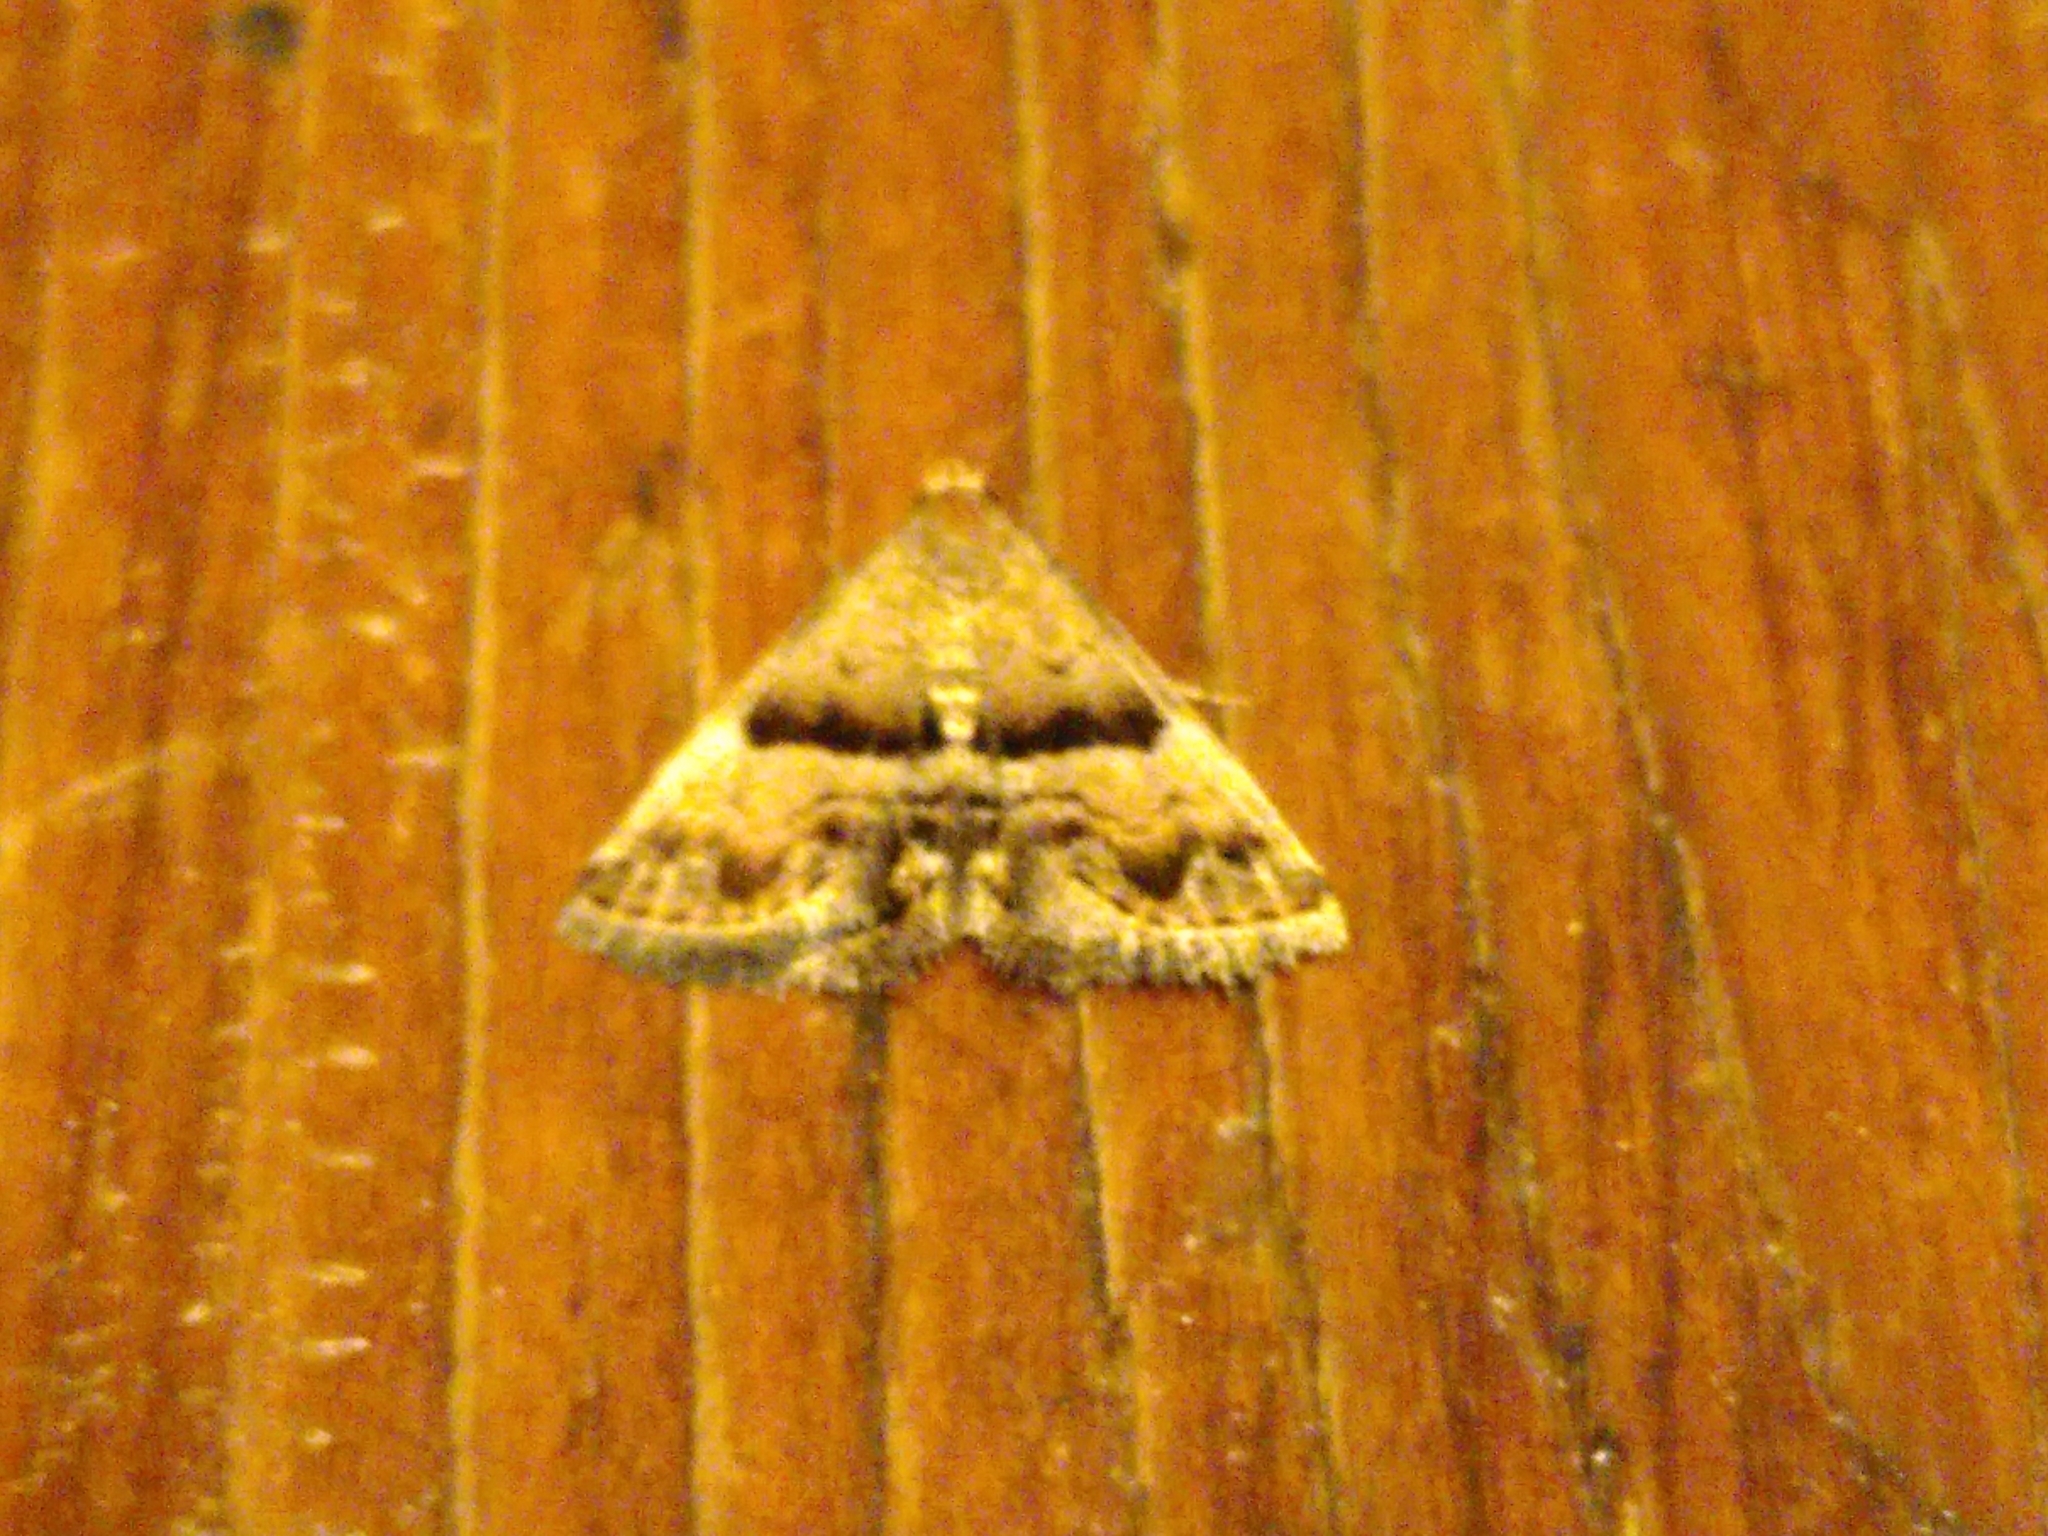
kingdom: Animalia
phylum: Arthropoda
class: Insecta
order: Lepidoptera
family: Noctuidae
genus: Odice
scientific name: Odice jucunda
